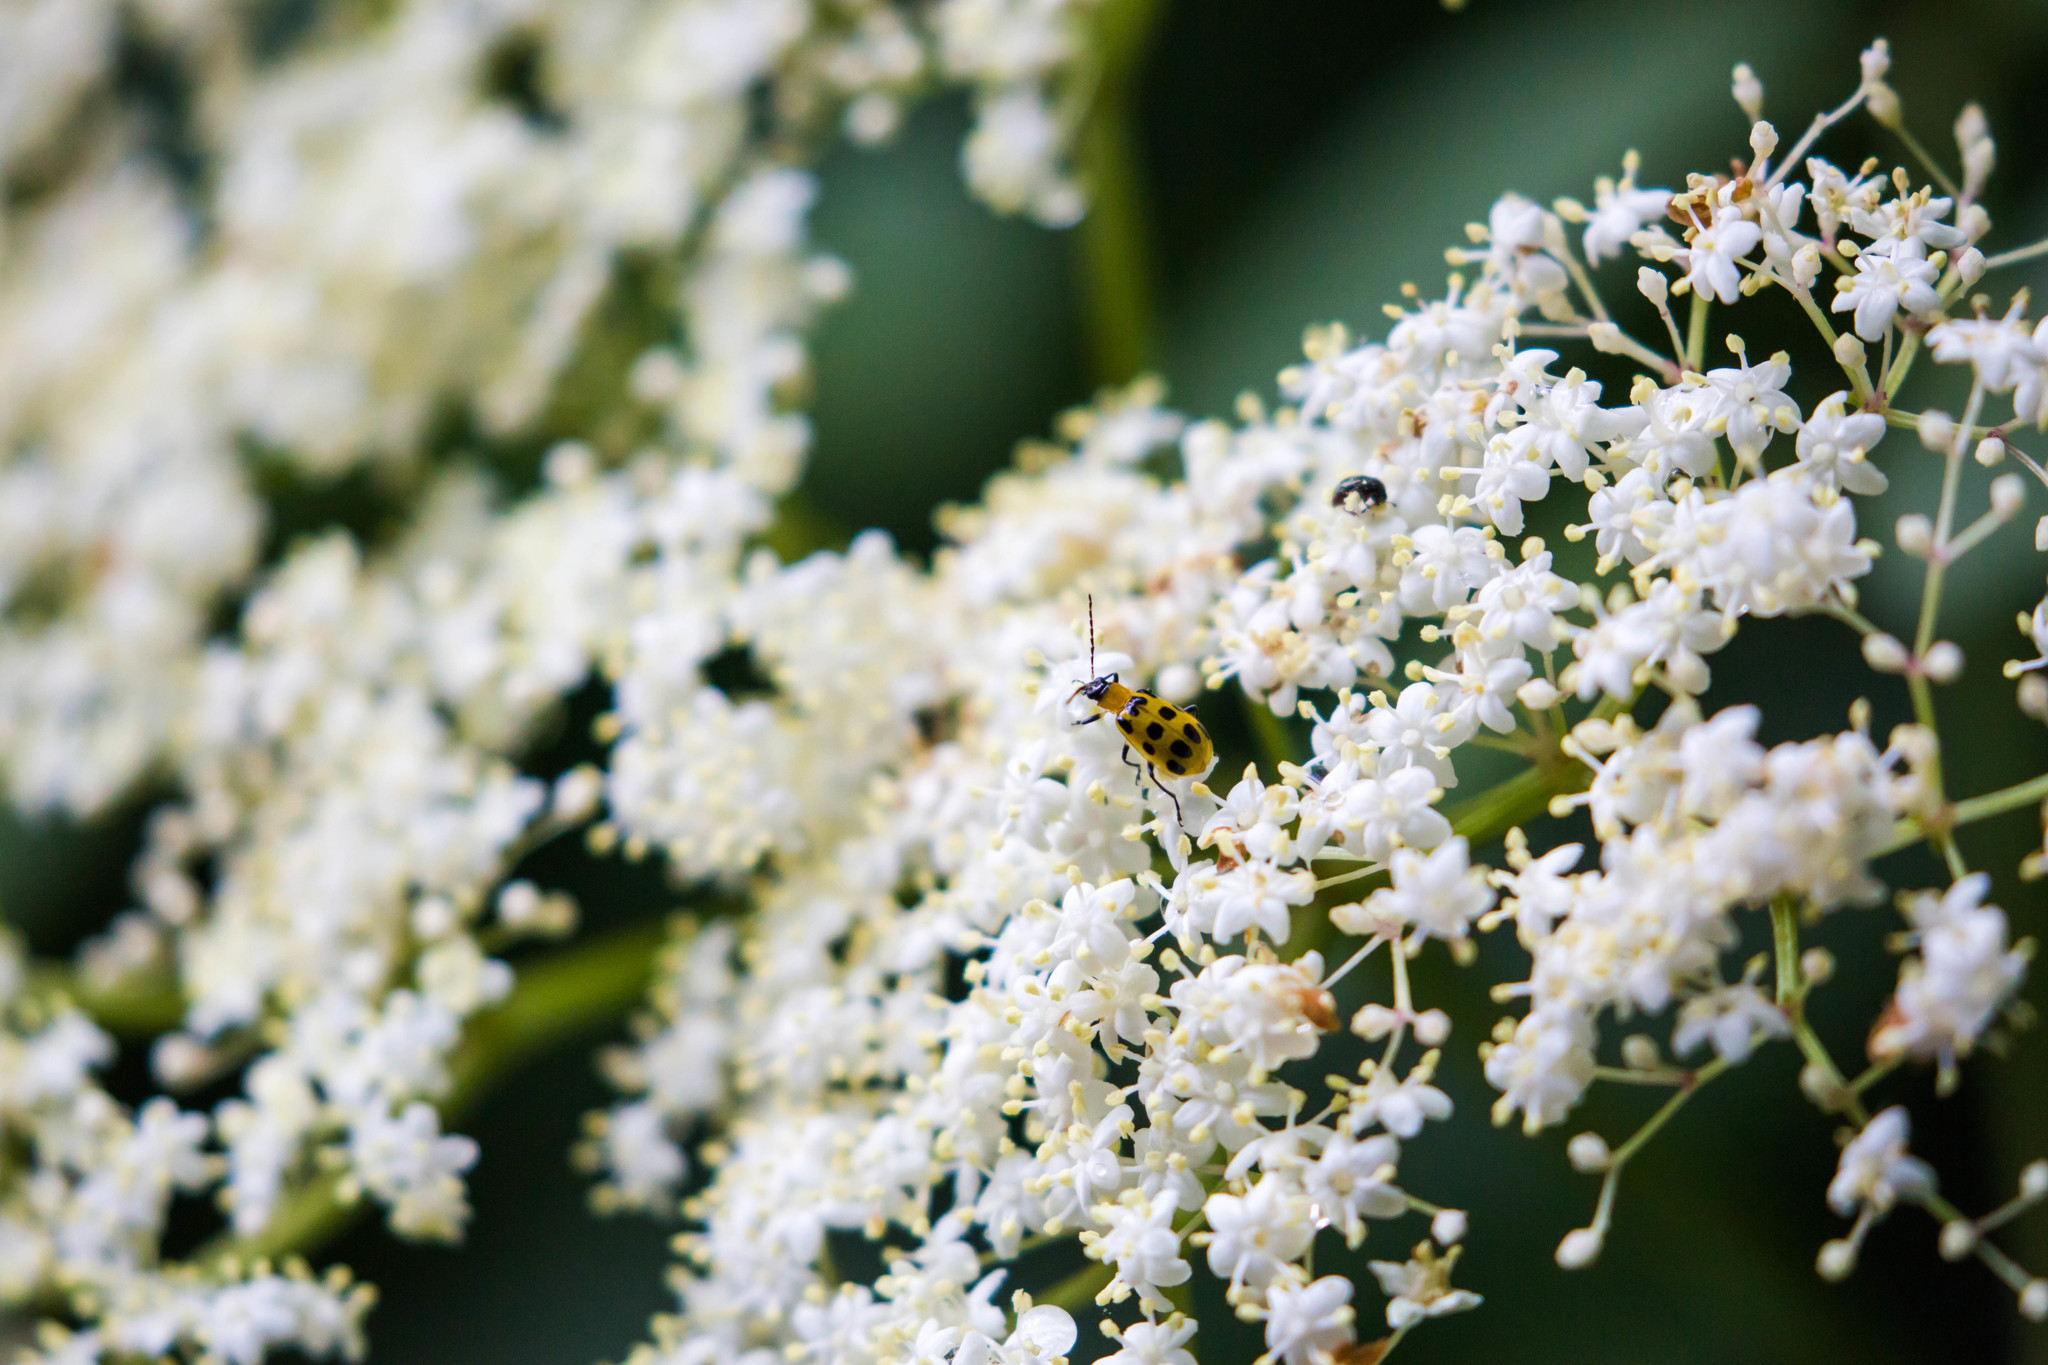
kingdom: Animalia
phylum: Arthropoda
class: Insecta
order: Coleoptera
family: Chrysomelidae
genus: Diabrotica
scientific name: Diabrotica undecimpunctata
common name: Spotted cucumber beetle
